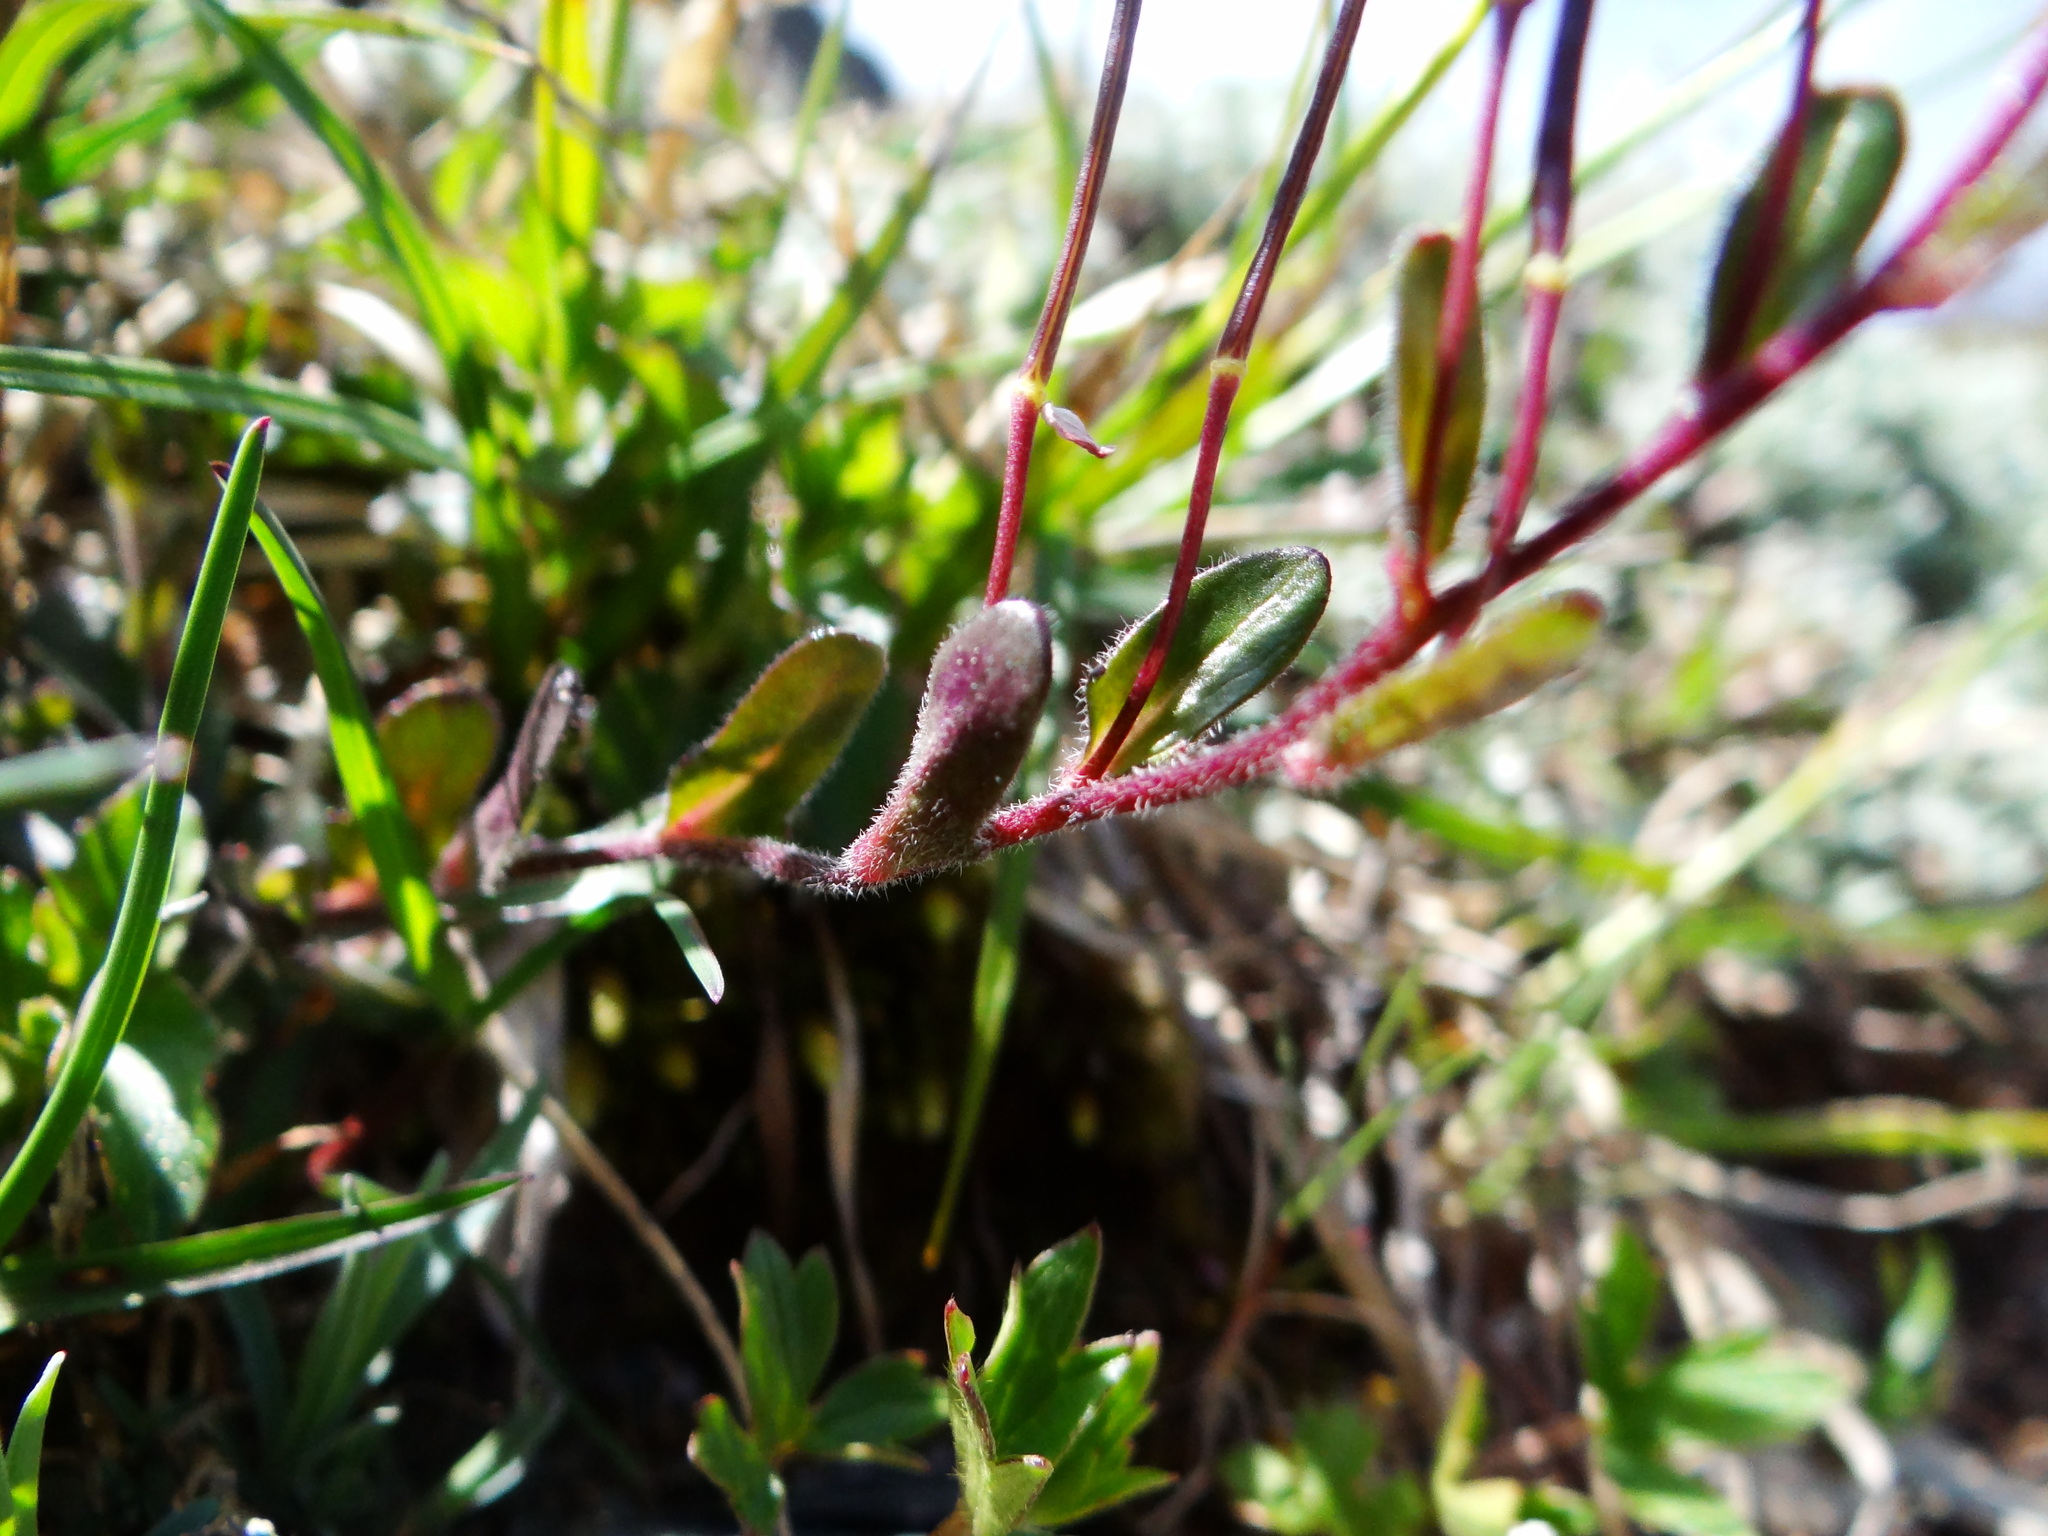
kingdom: Plantae
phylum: Tracheophyta
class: Magnoliopsida
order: Brassicales
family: Brassicaceae
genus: Arabis
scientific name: Arabis serrata
